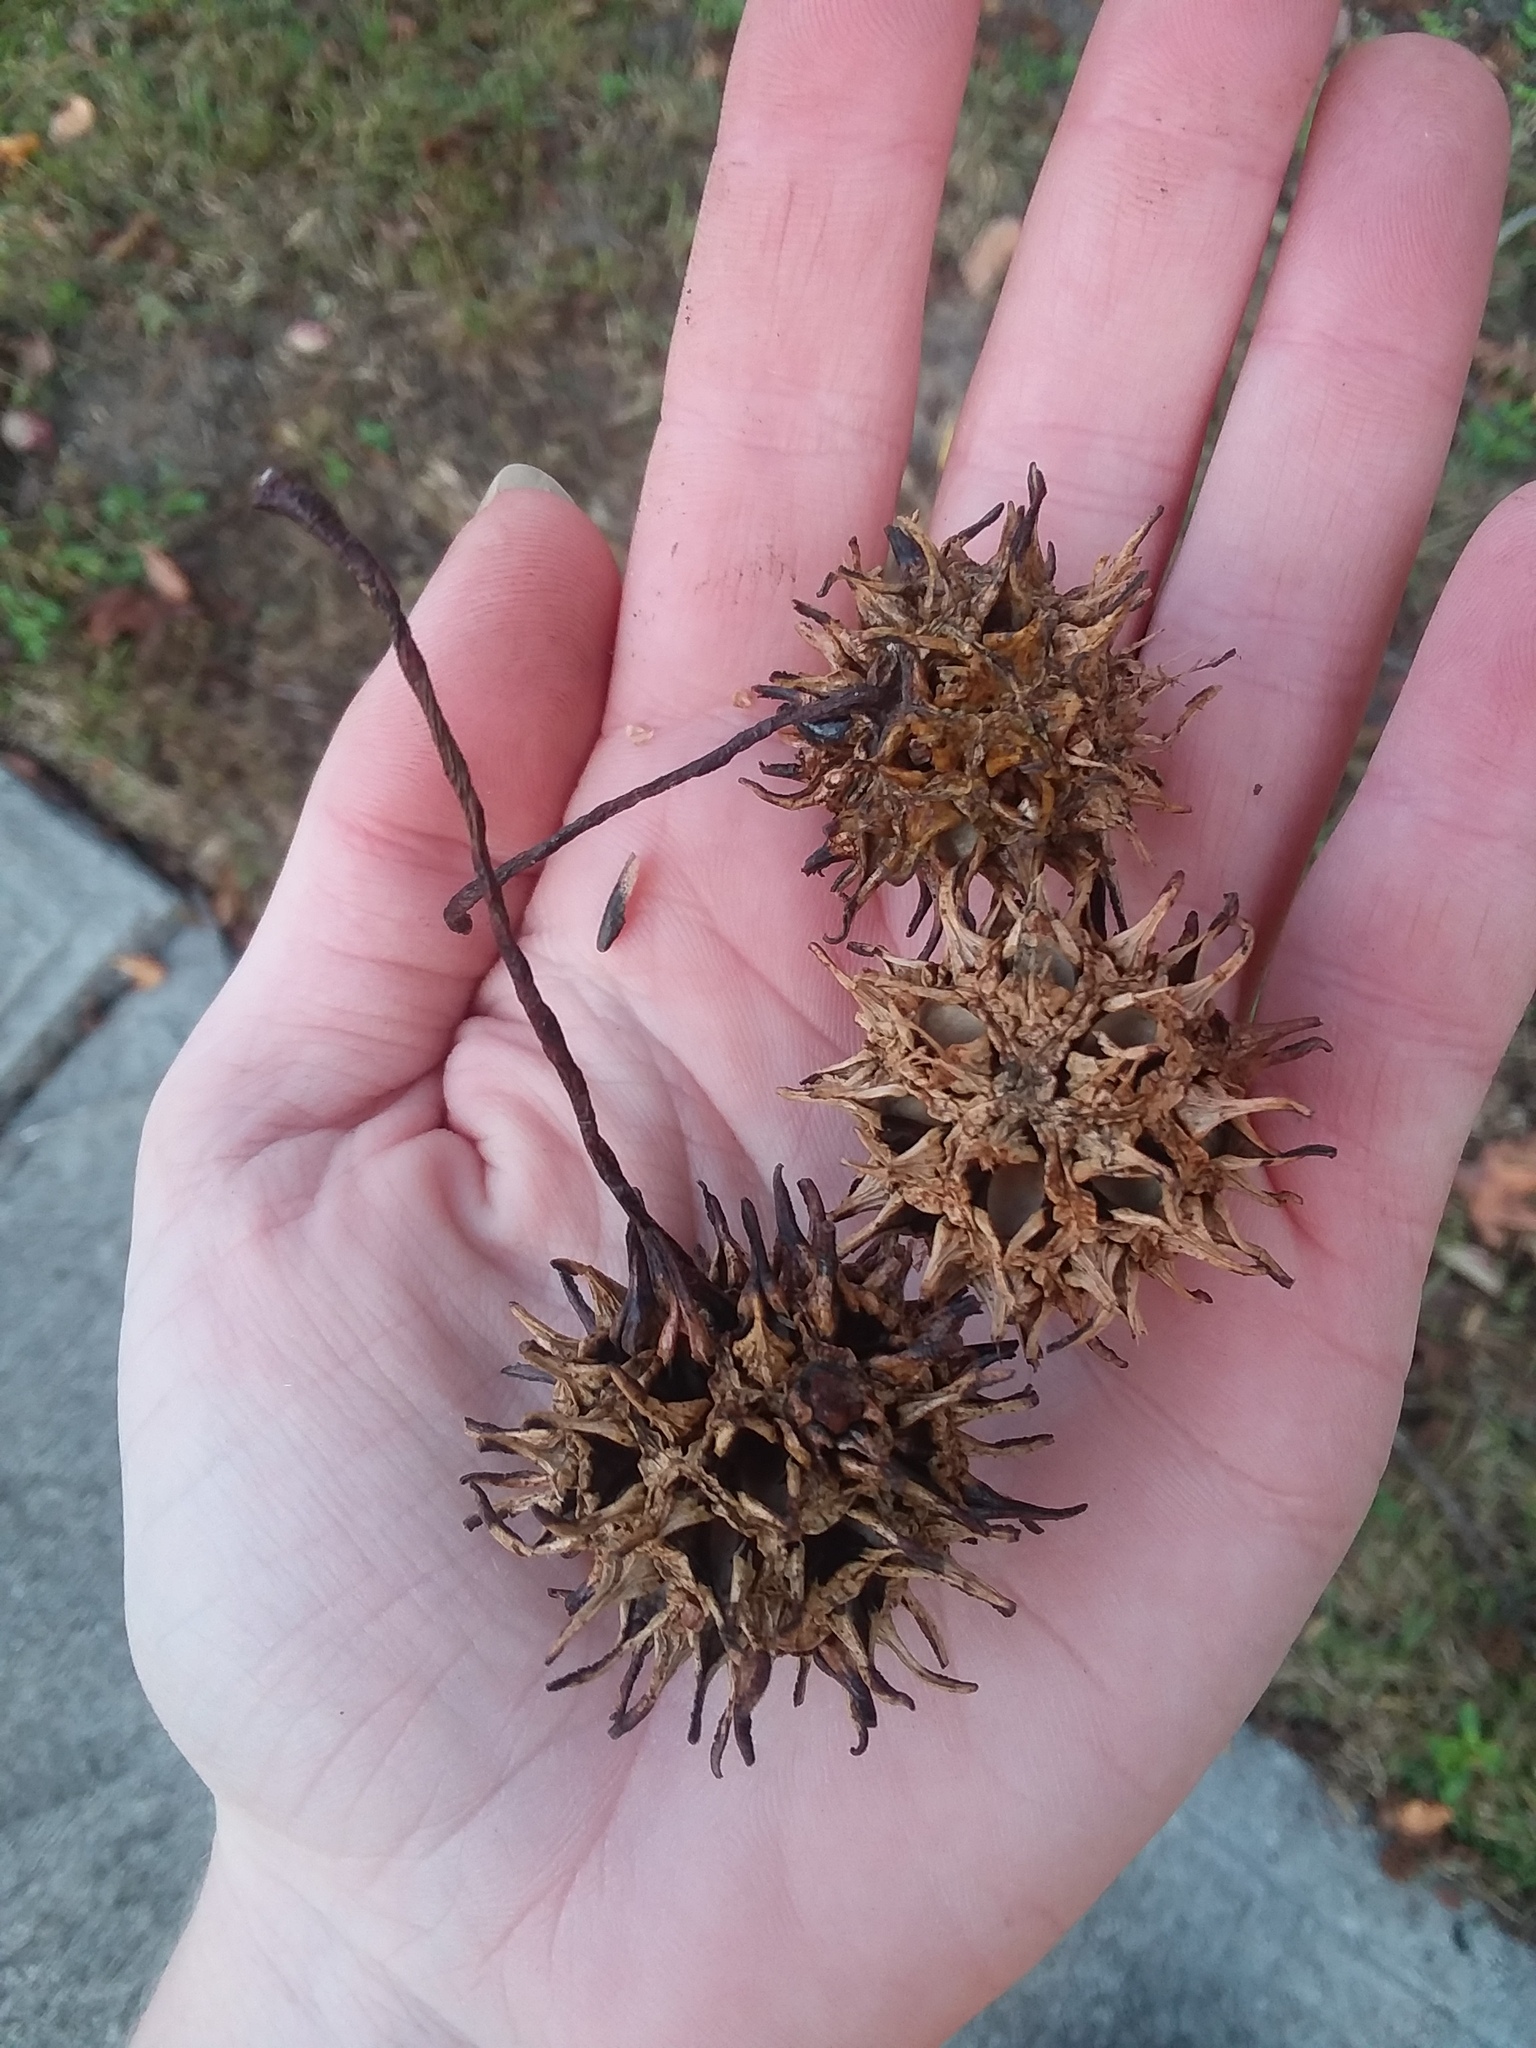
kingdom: Plantae
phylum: Tracheophyta
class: Magnoliopsida
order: Saxifragales
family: Altingiaceae
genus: Liquidambar
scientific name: Liquidambar styraciflua
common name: Sweet gum
